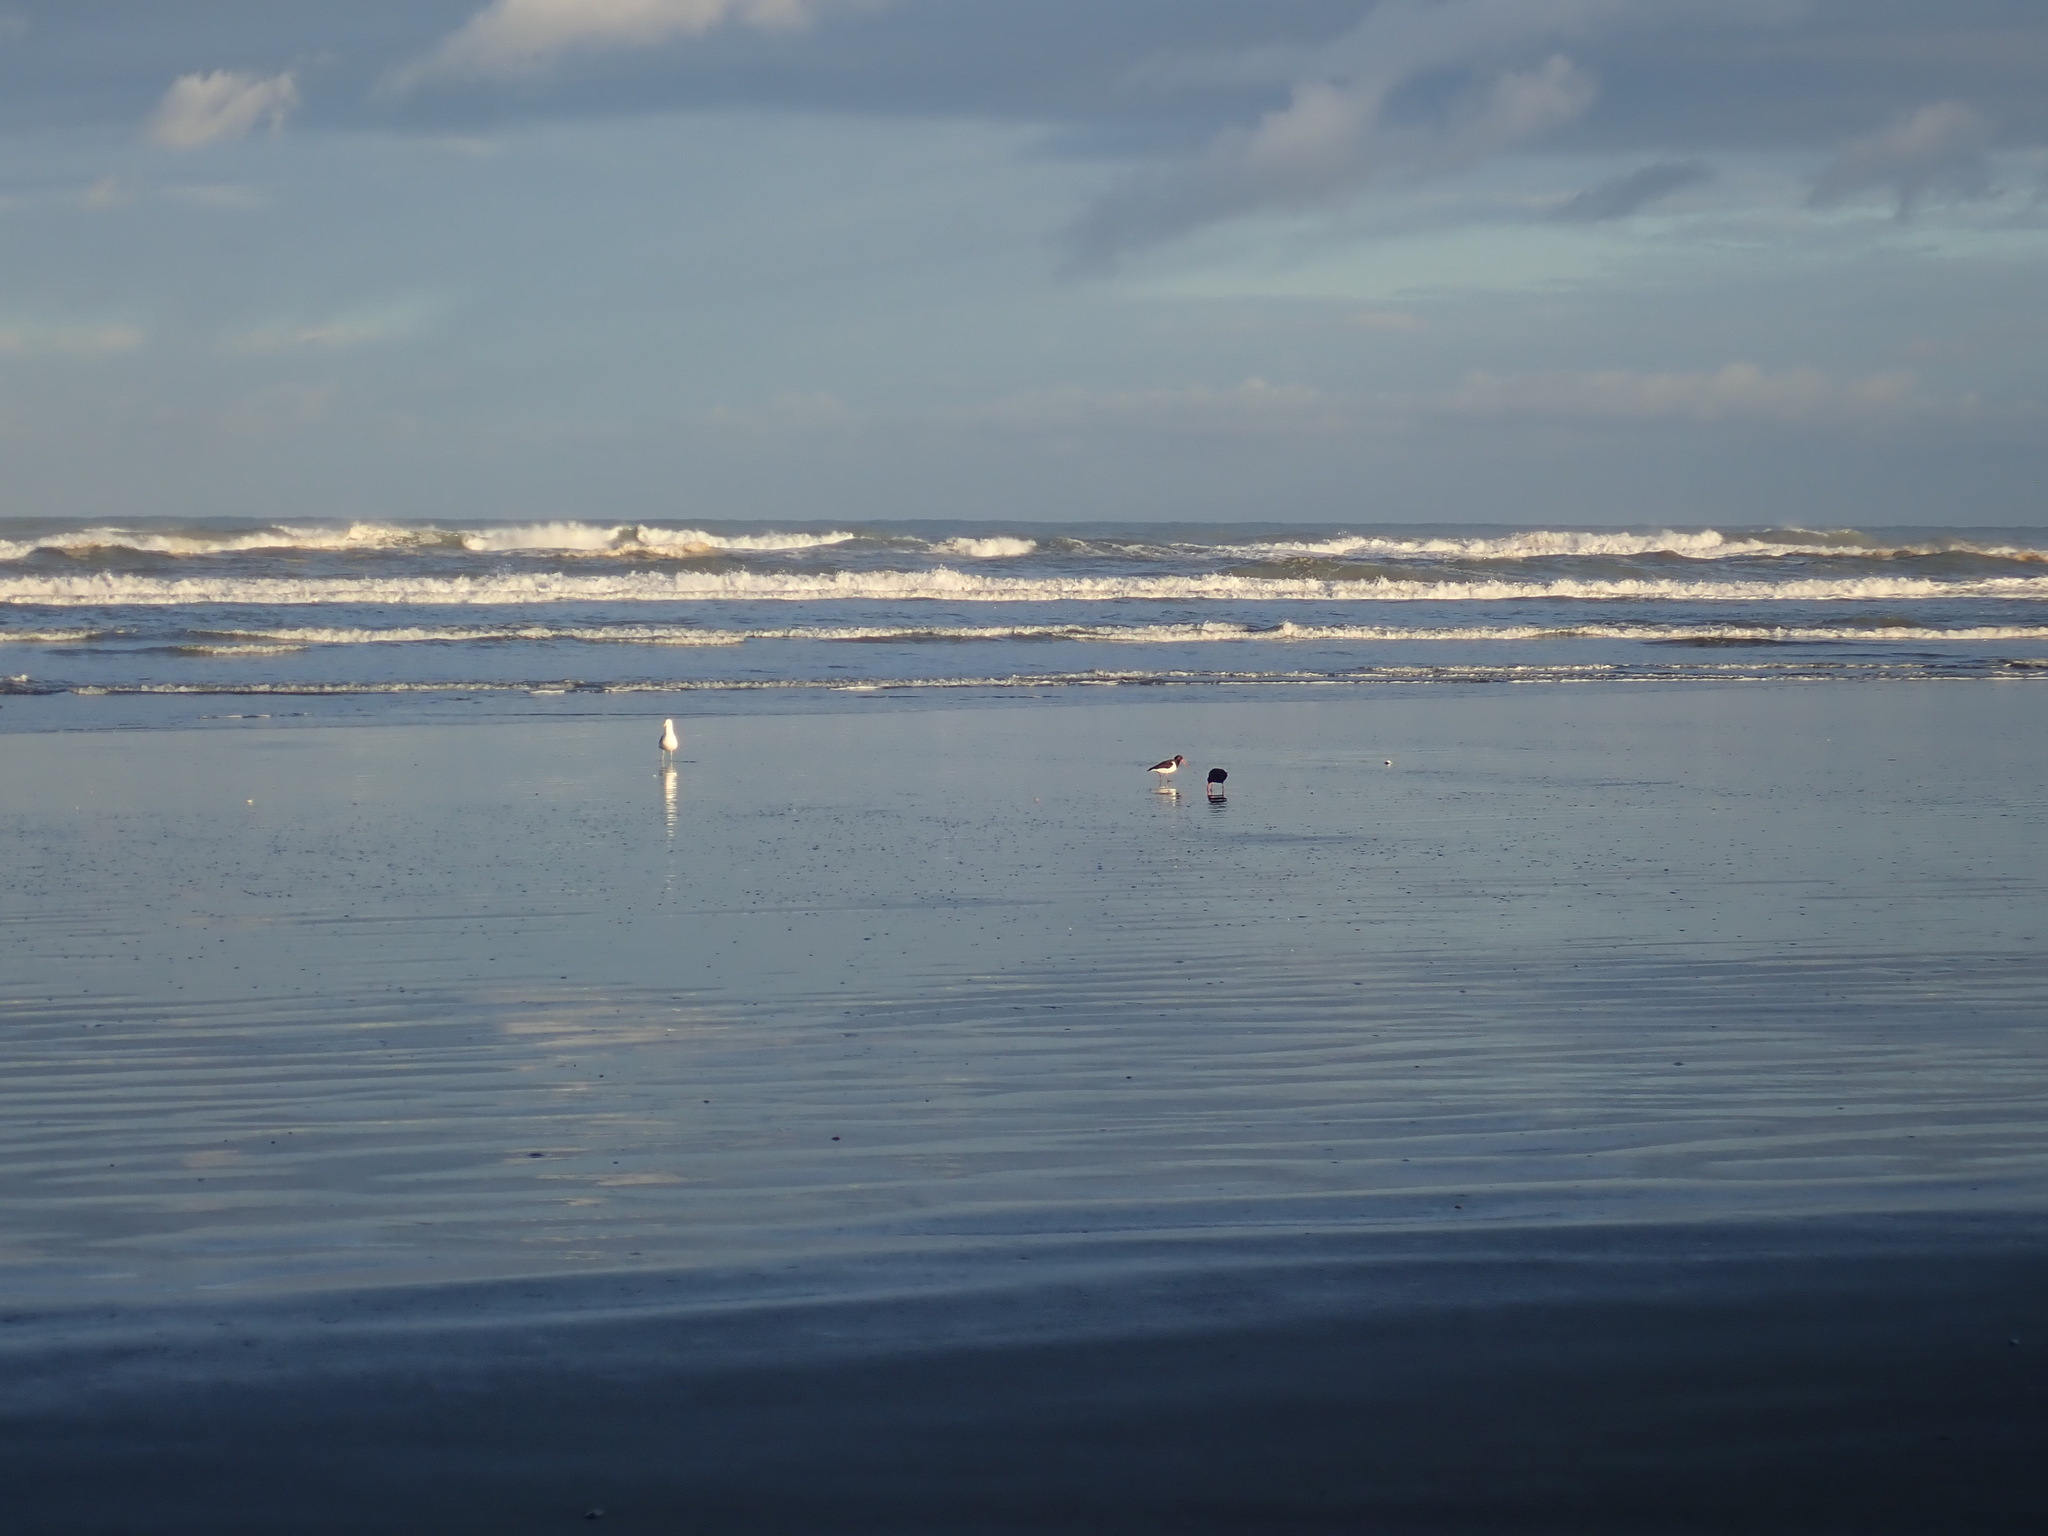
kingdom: Animalia
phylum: Chordata
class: Aves
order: Charadriiformes
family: Haematopodidae
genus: Haematopus
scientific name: Haematopus unicolor
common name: Variable oystercatcher
